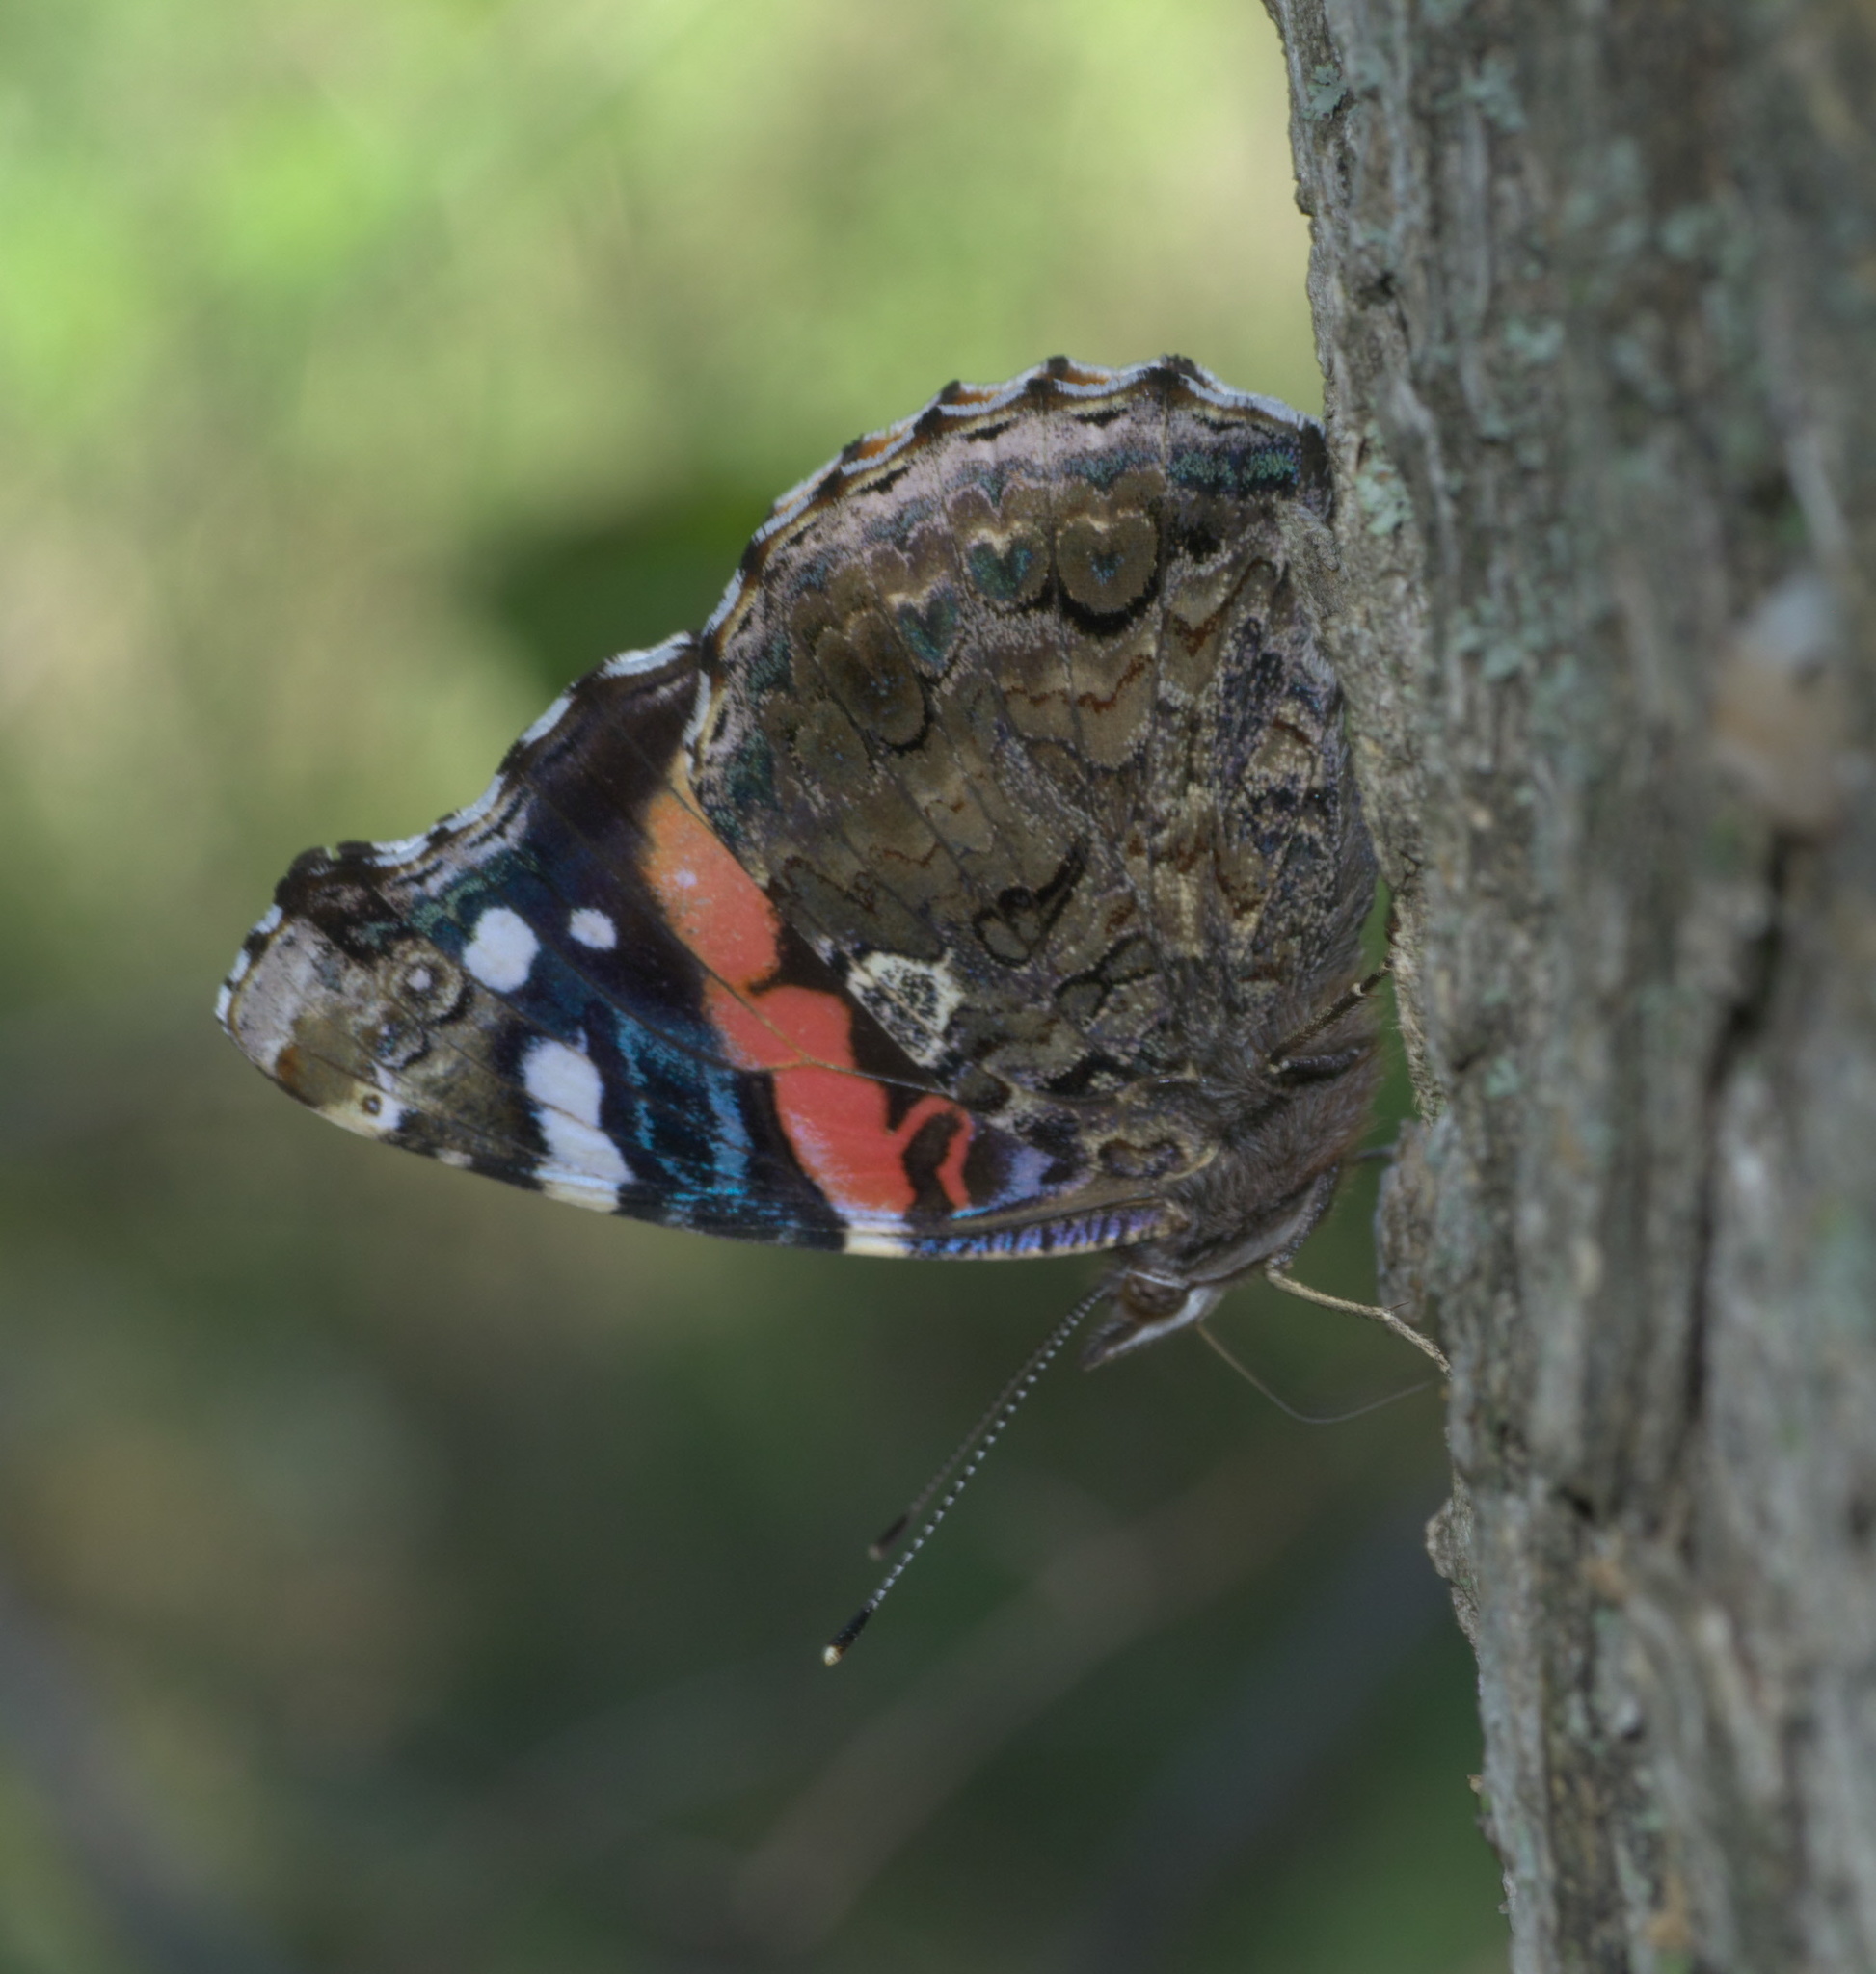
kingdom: Animalia
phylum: Arthropoda
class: Insecta
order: Lepidoptera
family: Nymphalidae
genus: Vanessa
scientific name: Vanessa atalanta
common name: Red admiral
